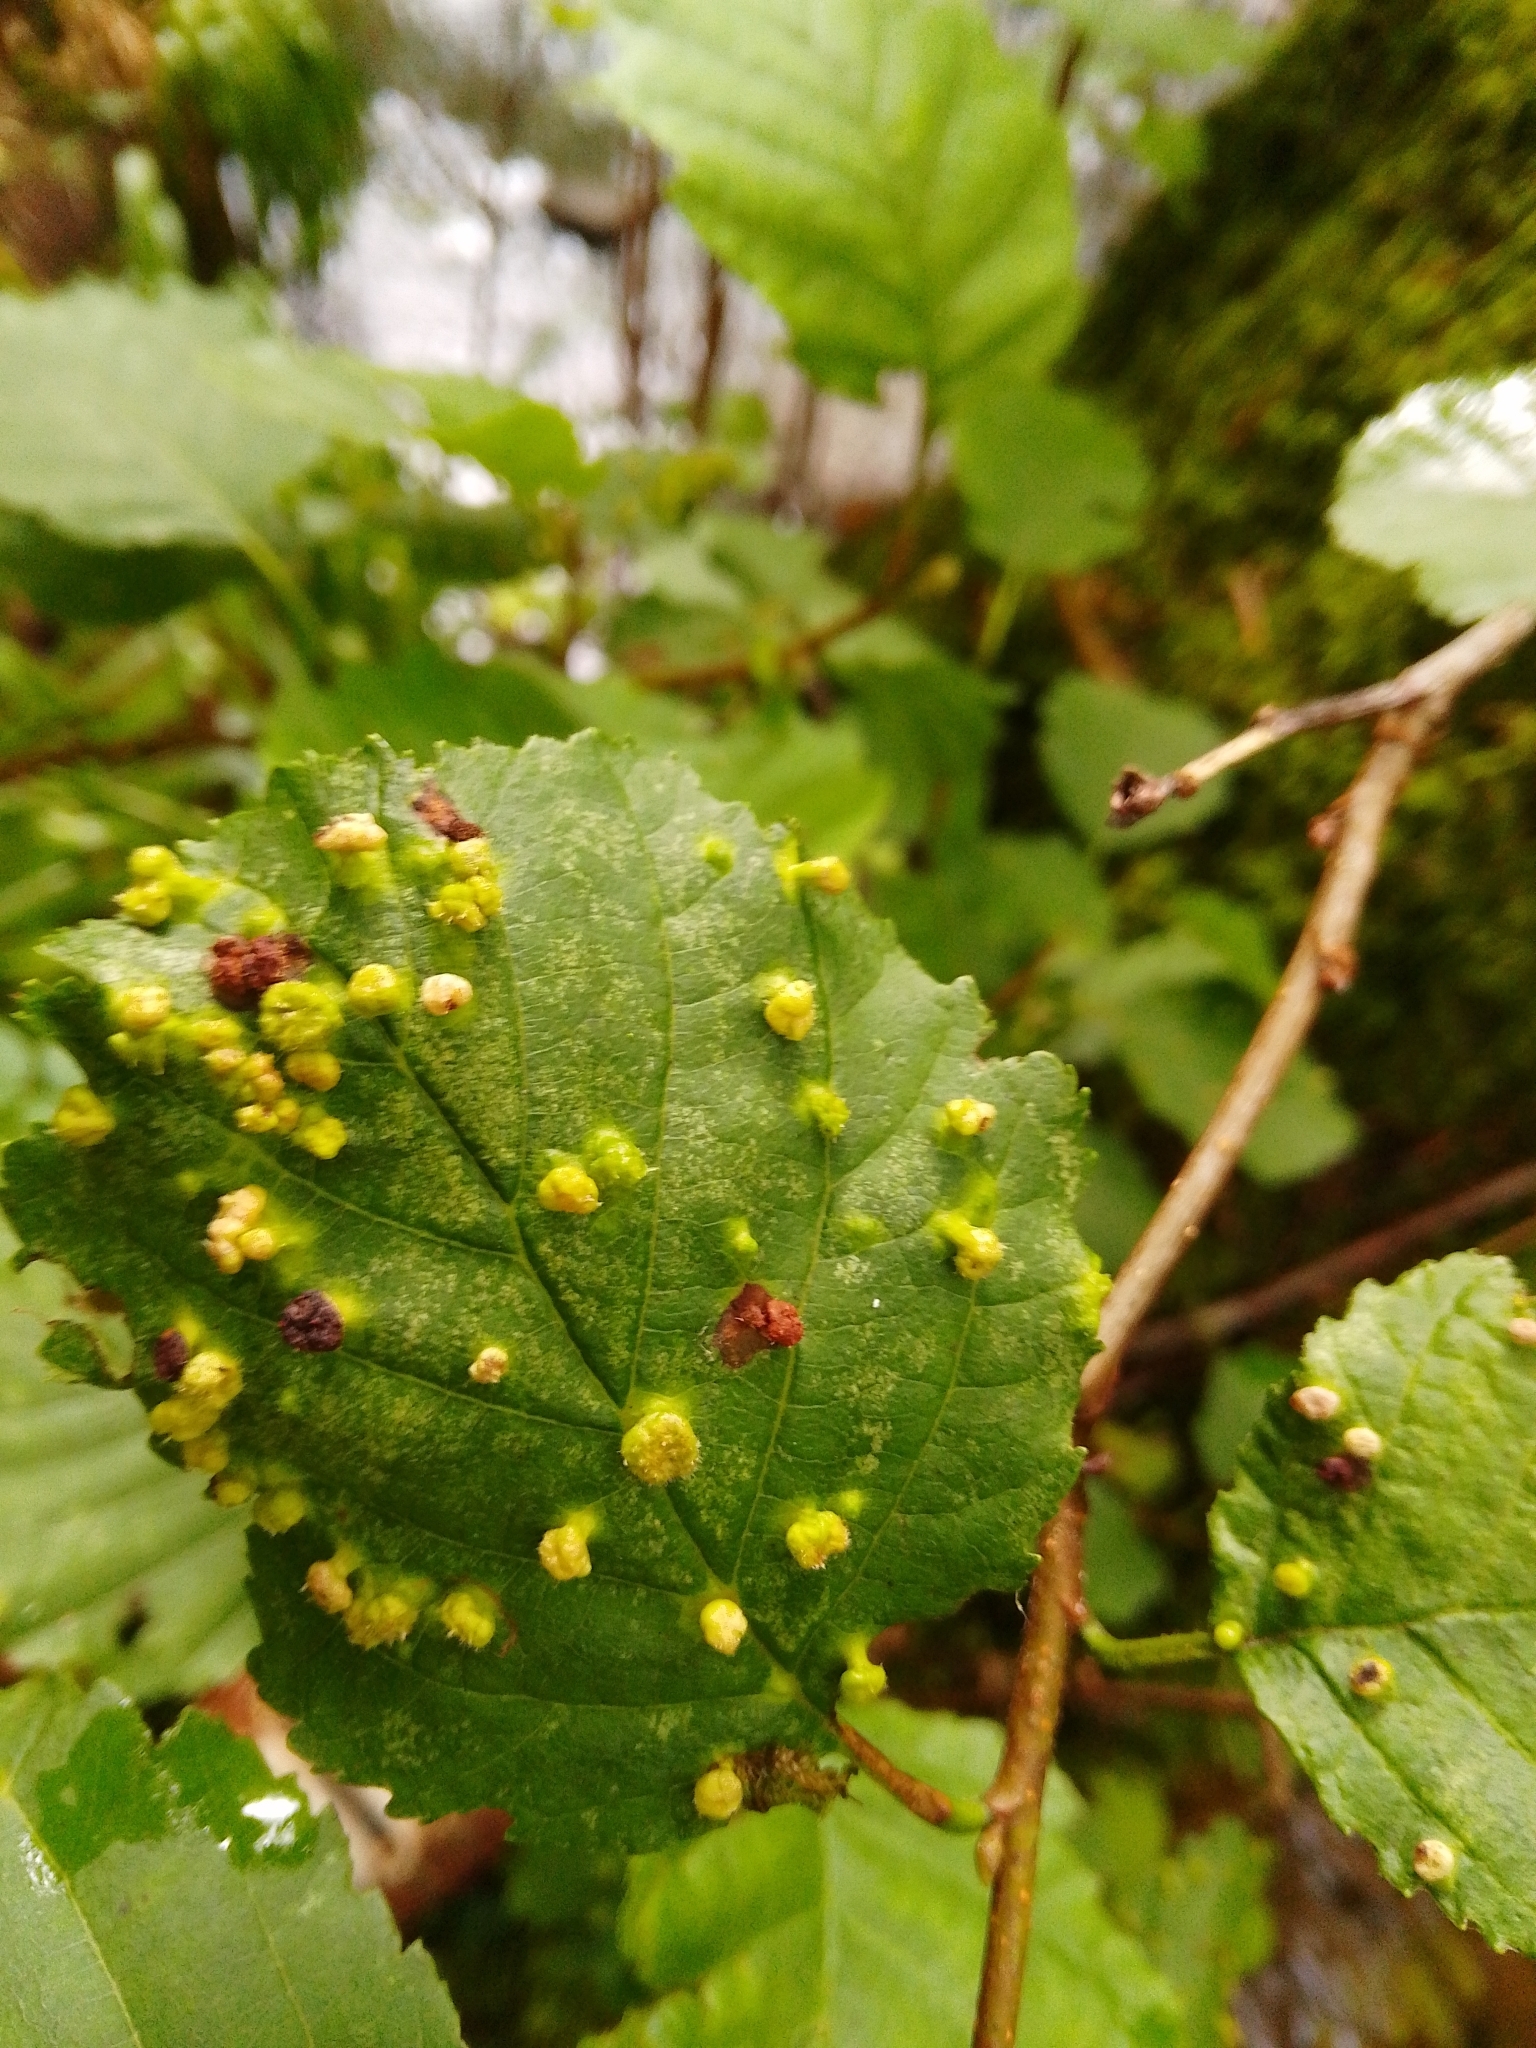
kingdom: Animalia
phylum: Arthropoda
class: Arachnida
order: Trombidiformes
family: Eriophyidae
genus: Eriophyes
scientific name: Eriophyes laevis
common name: Alder leaf gall mite
